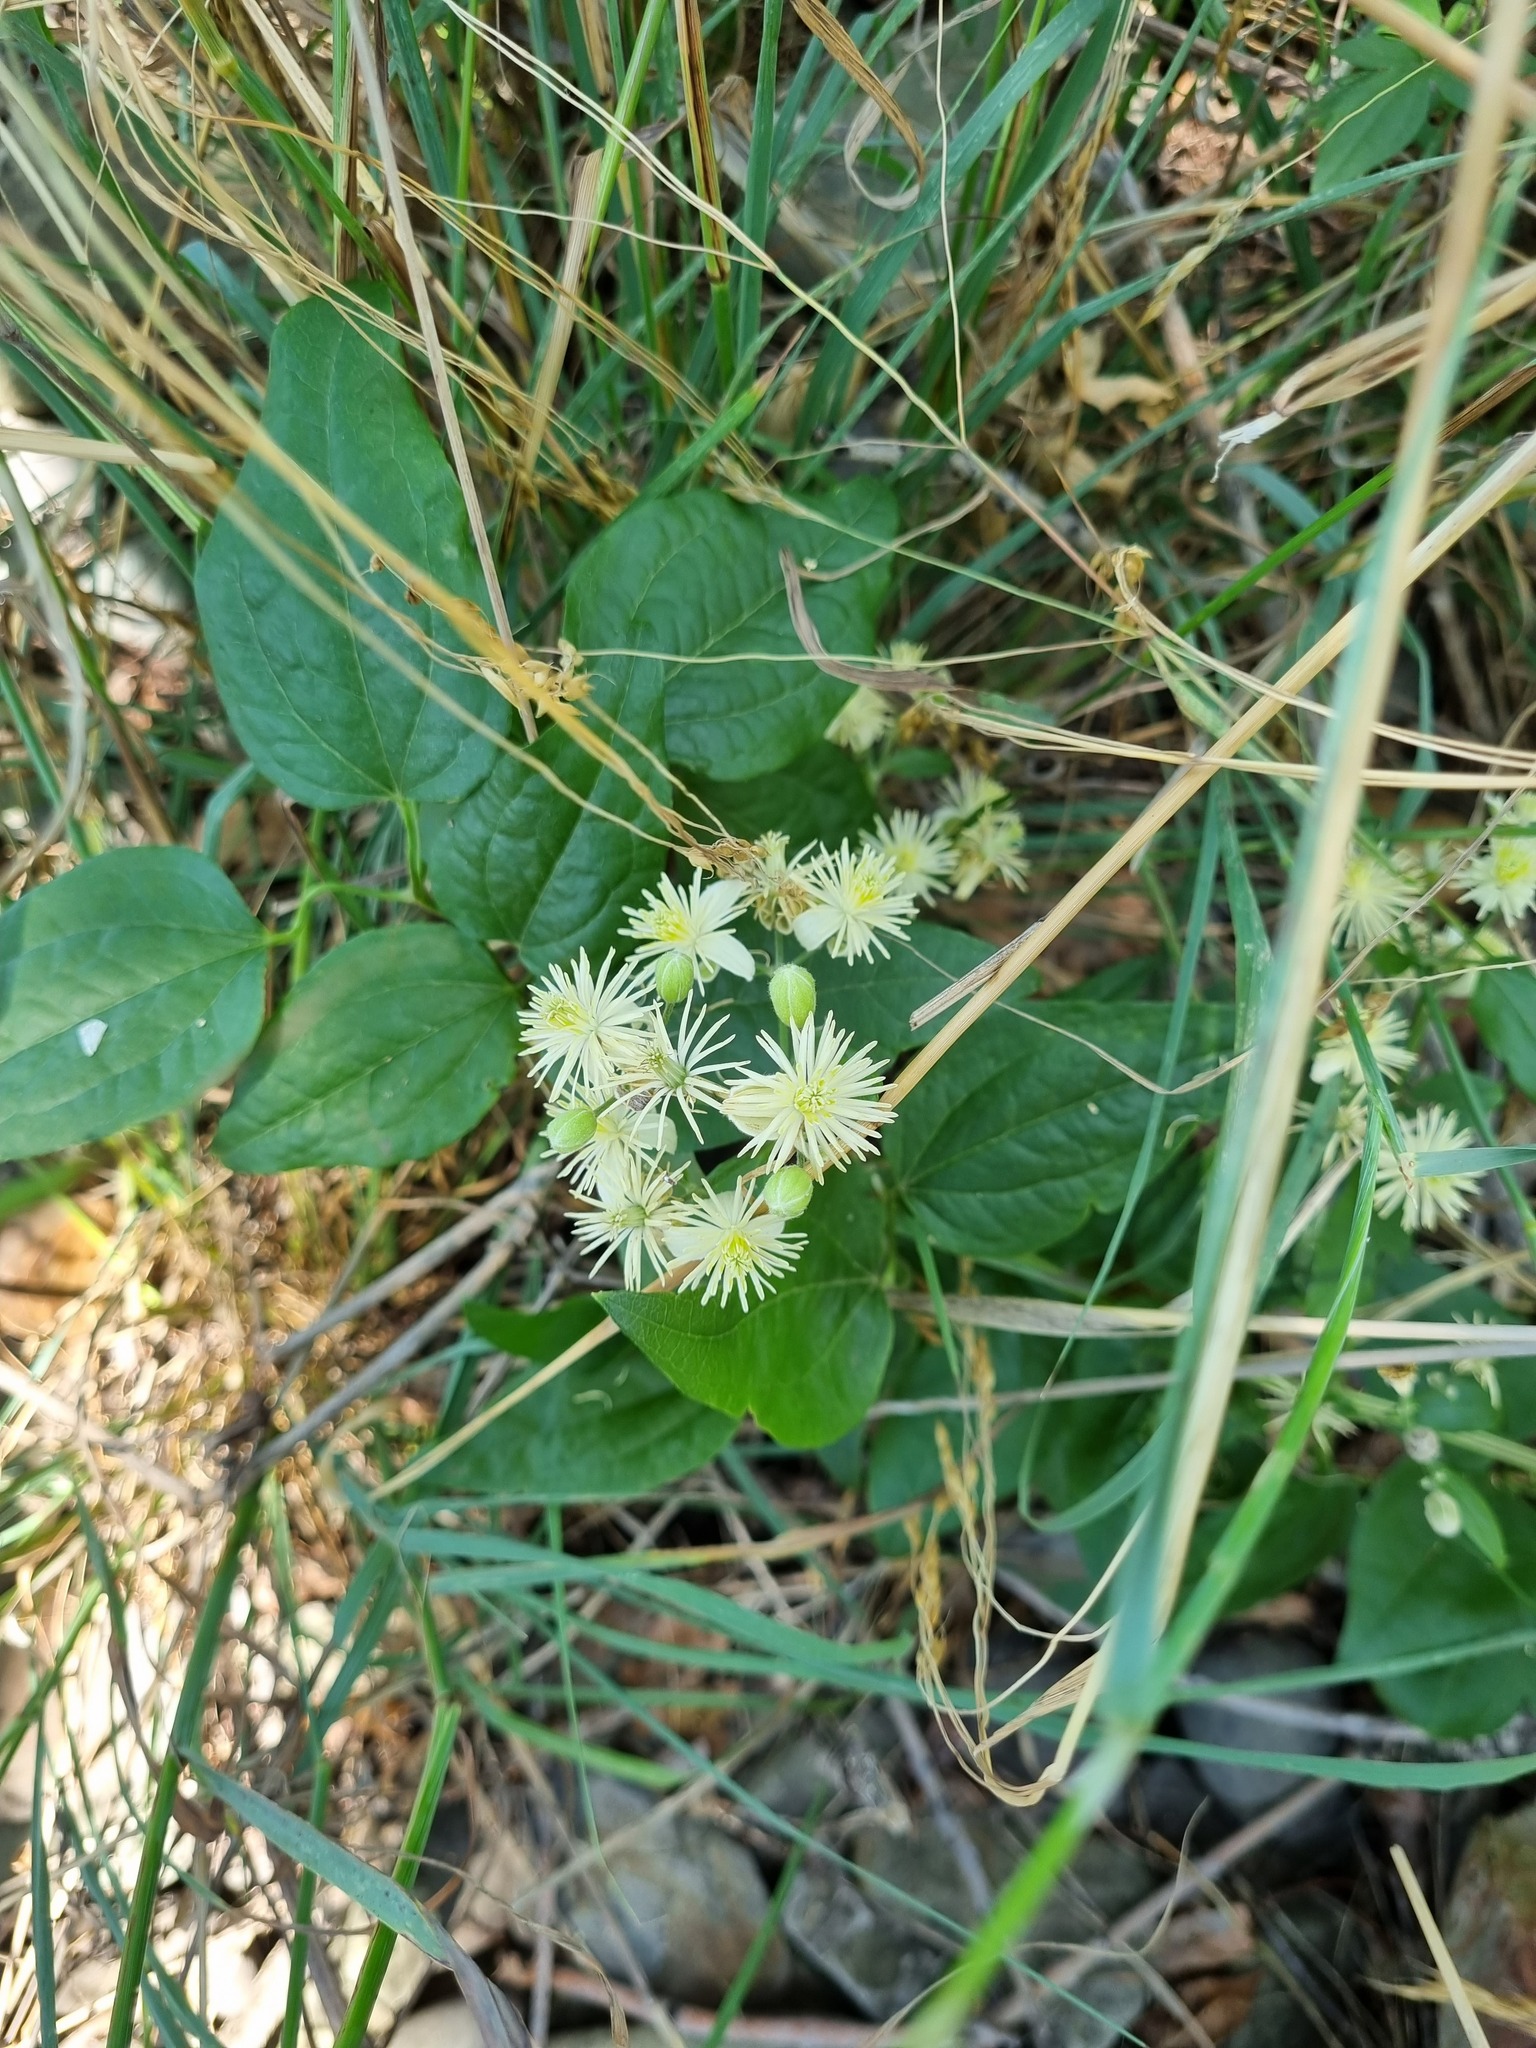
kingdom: Plantae
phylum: Tracheophyta
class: Magnoliopsida
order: Ranunculales
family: Ranunculaceae
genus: Clematis
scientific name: Clematis vitalba
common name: Evergreen clematis
